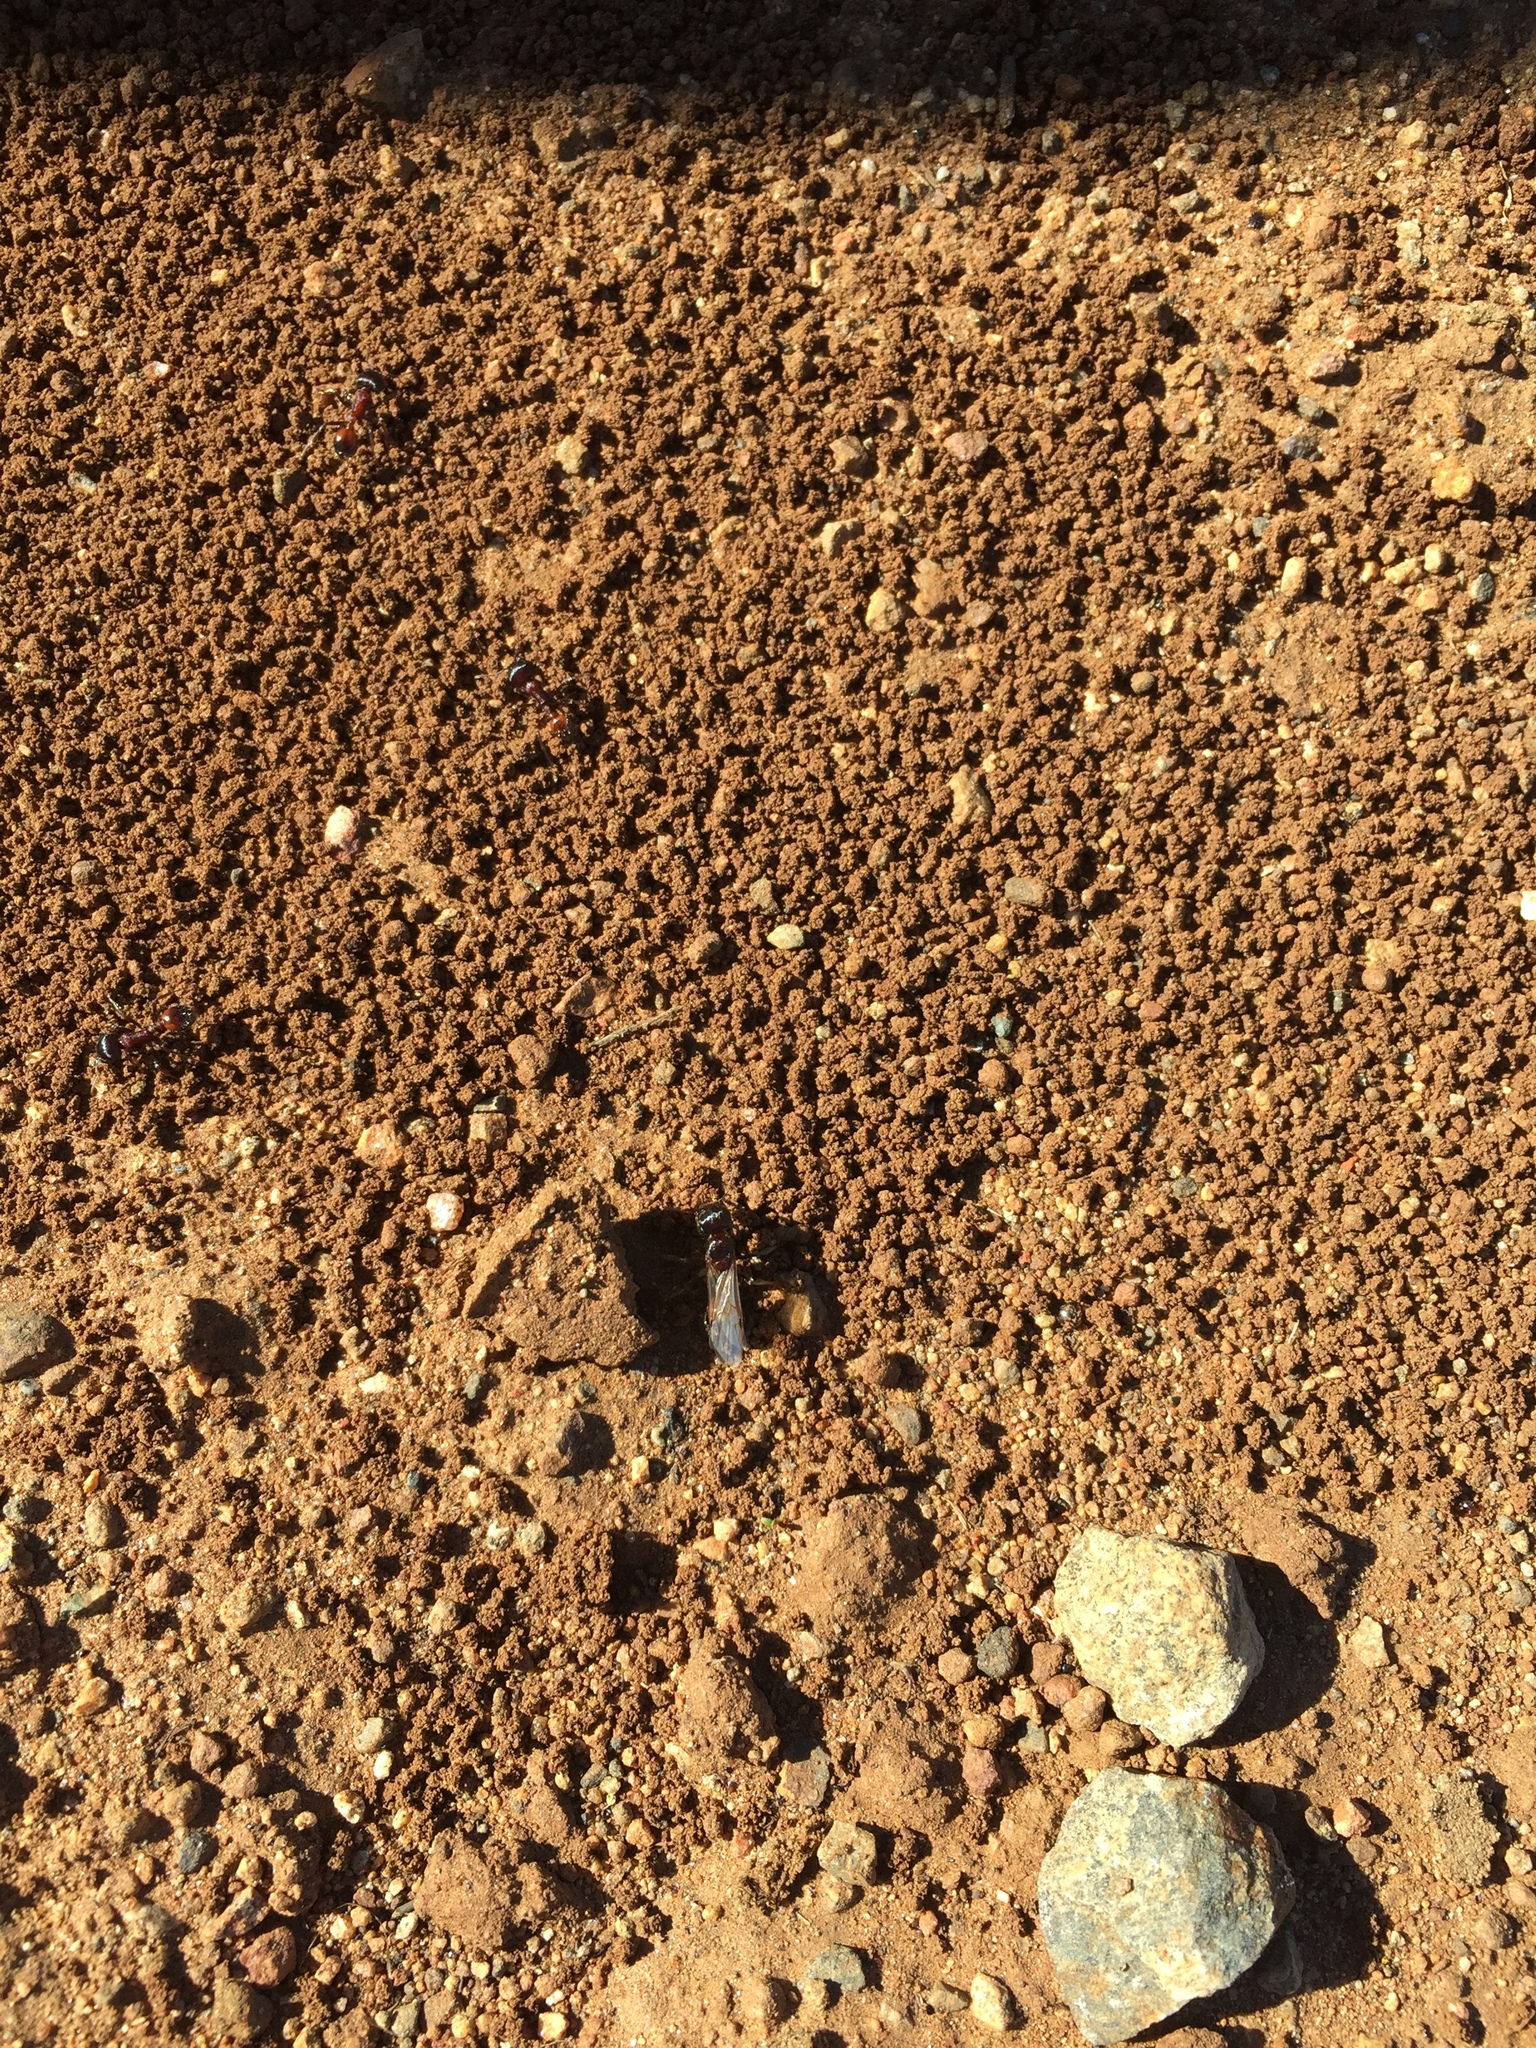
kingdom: Animalia
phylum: Arthropoda
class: Insecta
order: Hymenoptera
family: Formicidae
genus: Pogonomyrmex
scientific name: Pogonomyrmex rugosus
